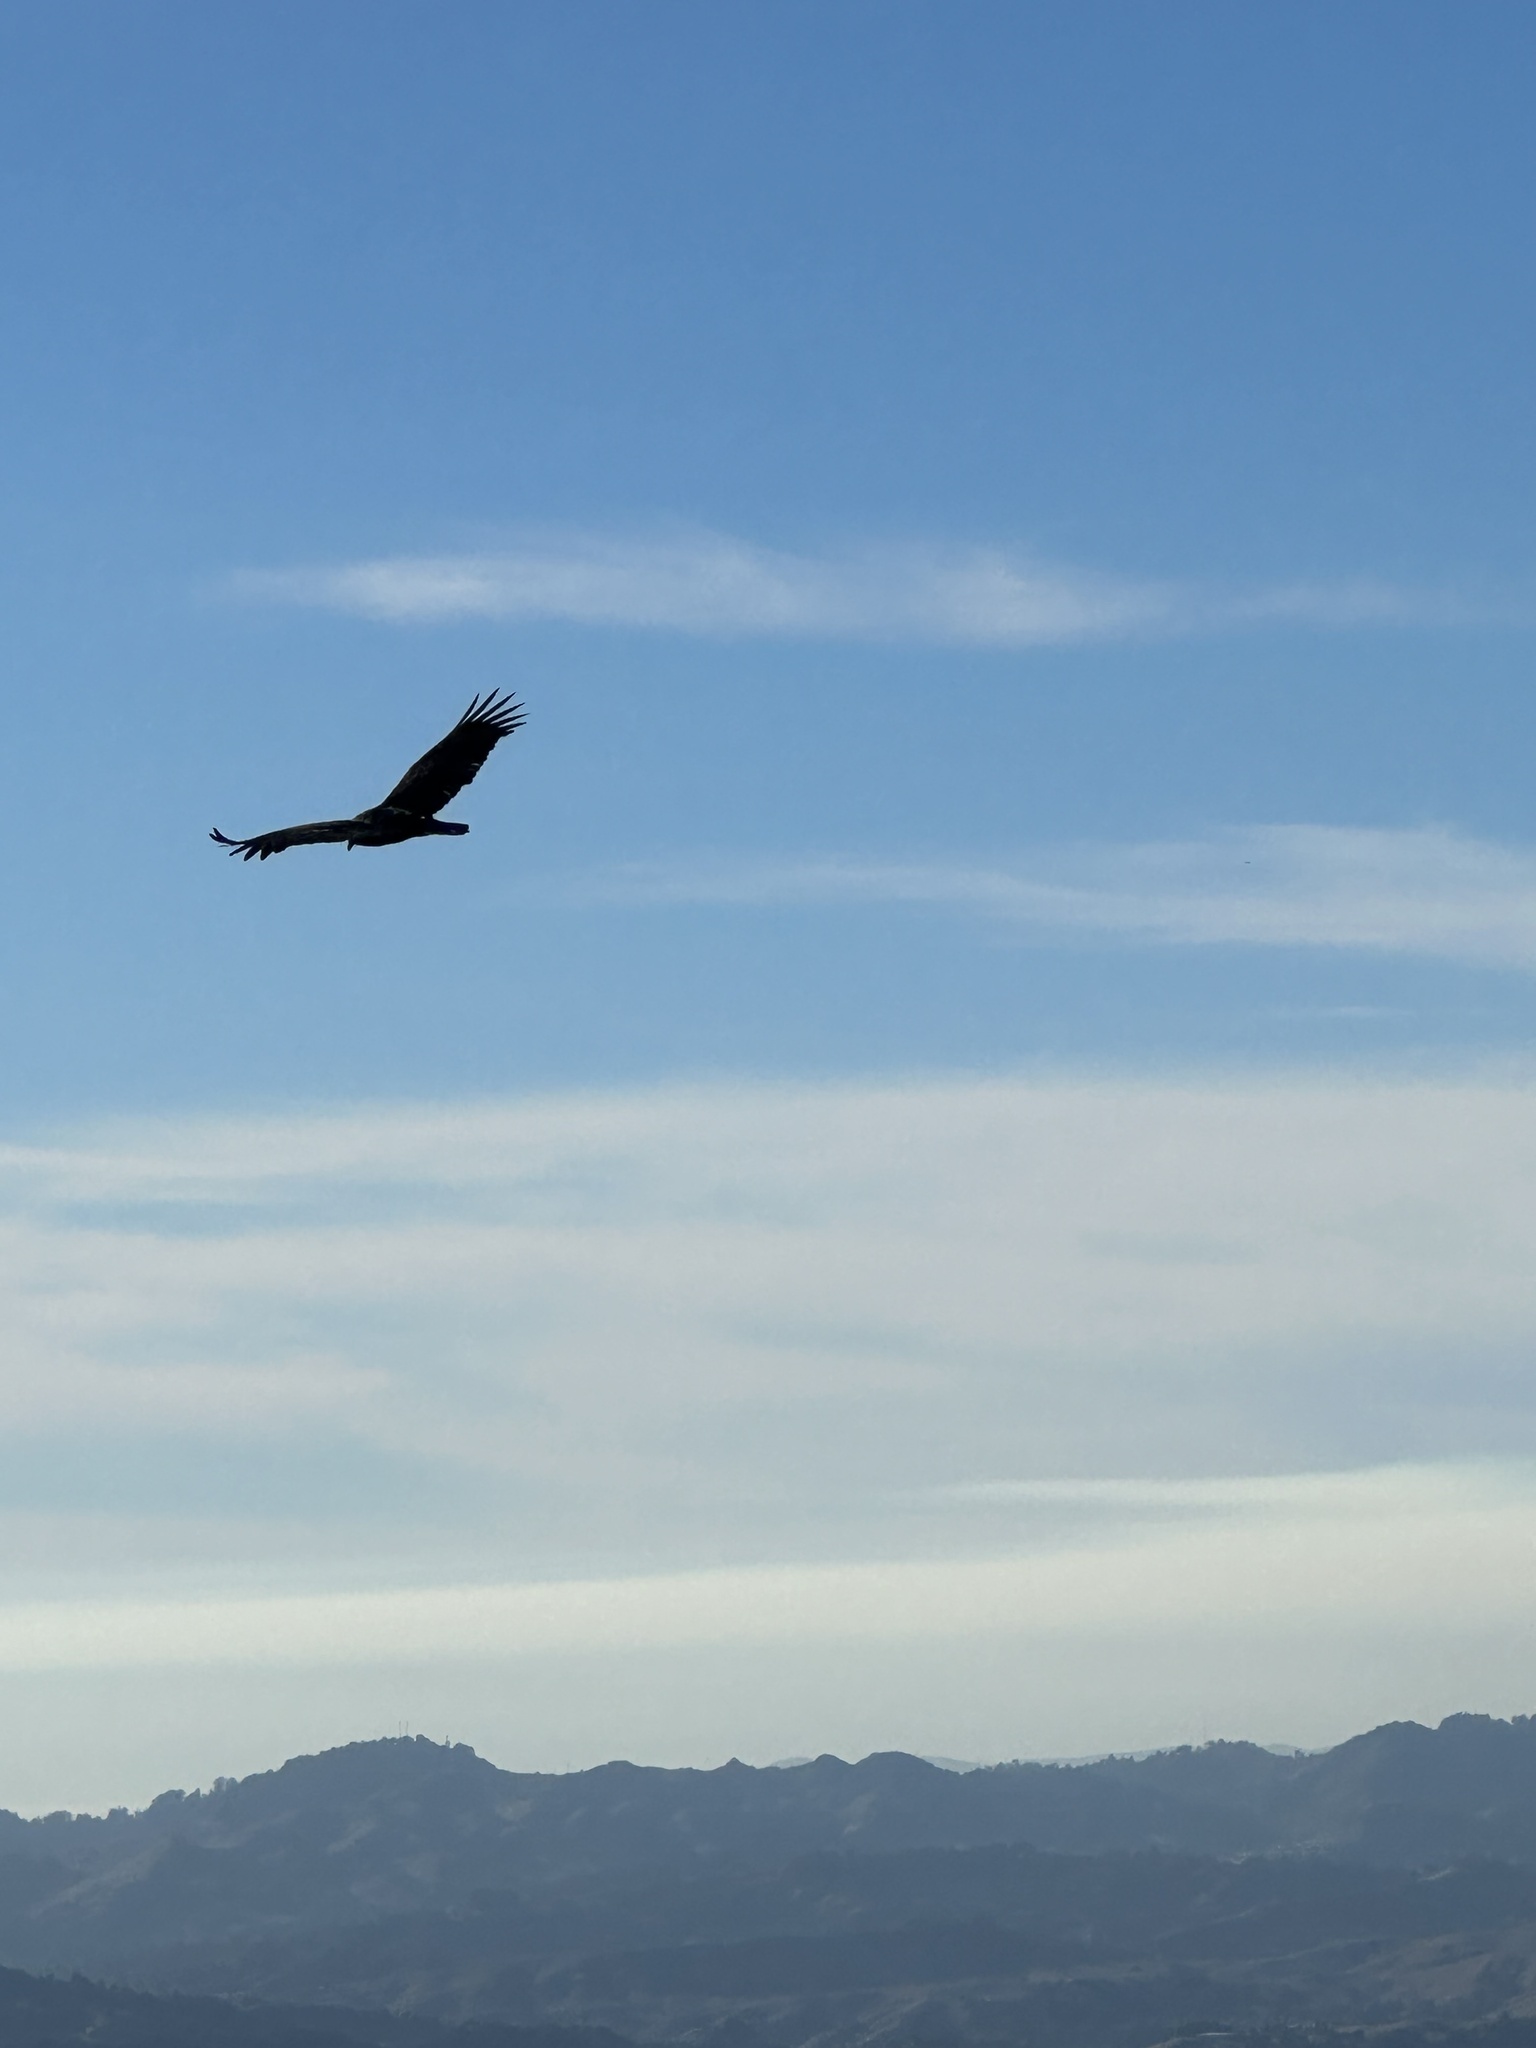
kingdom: Animalia
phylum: Chordata
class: Aves
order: Accipitriformes
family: Cathartidae
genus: Cathartes
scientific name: Cathartes aura
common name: Turkey vulture
